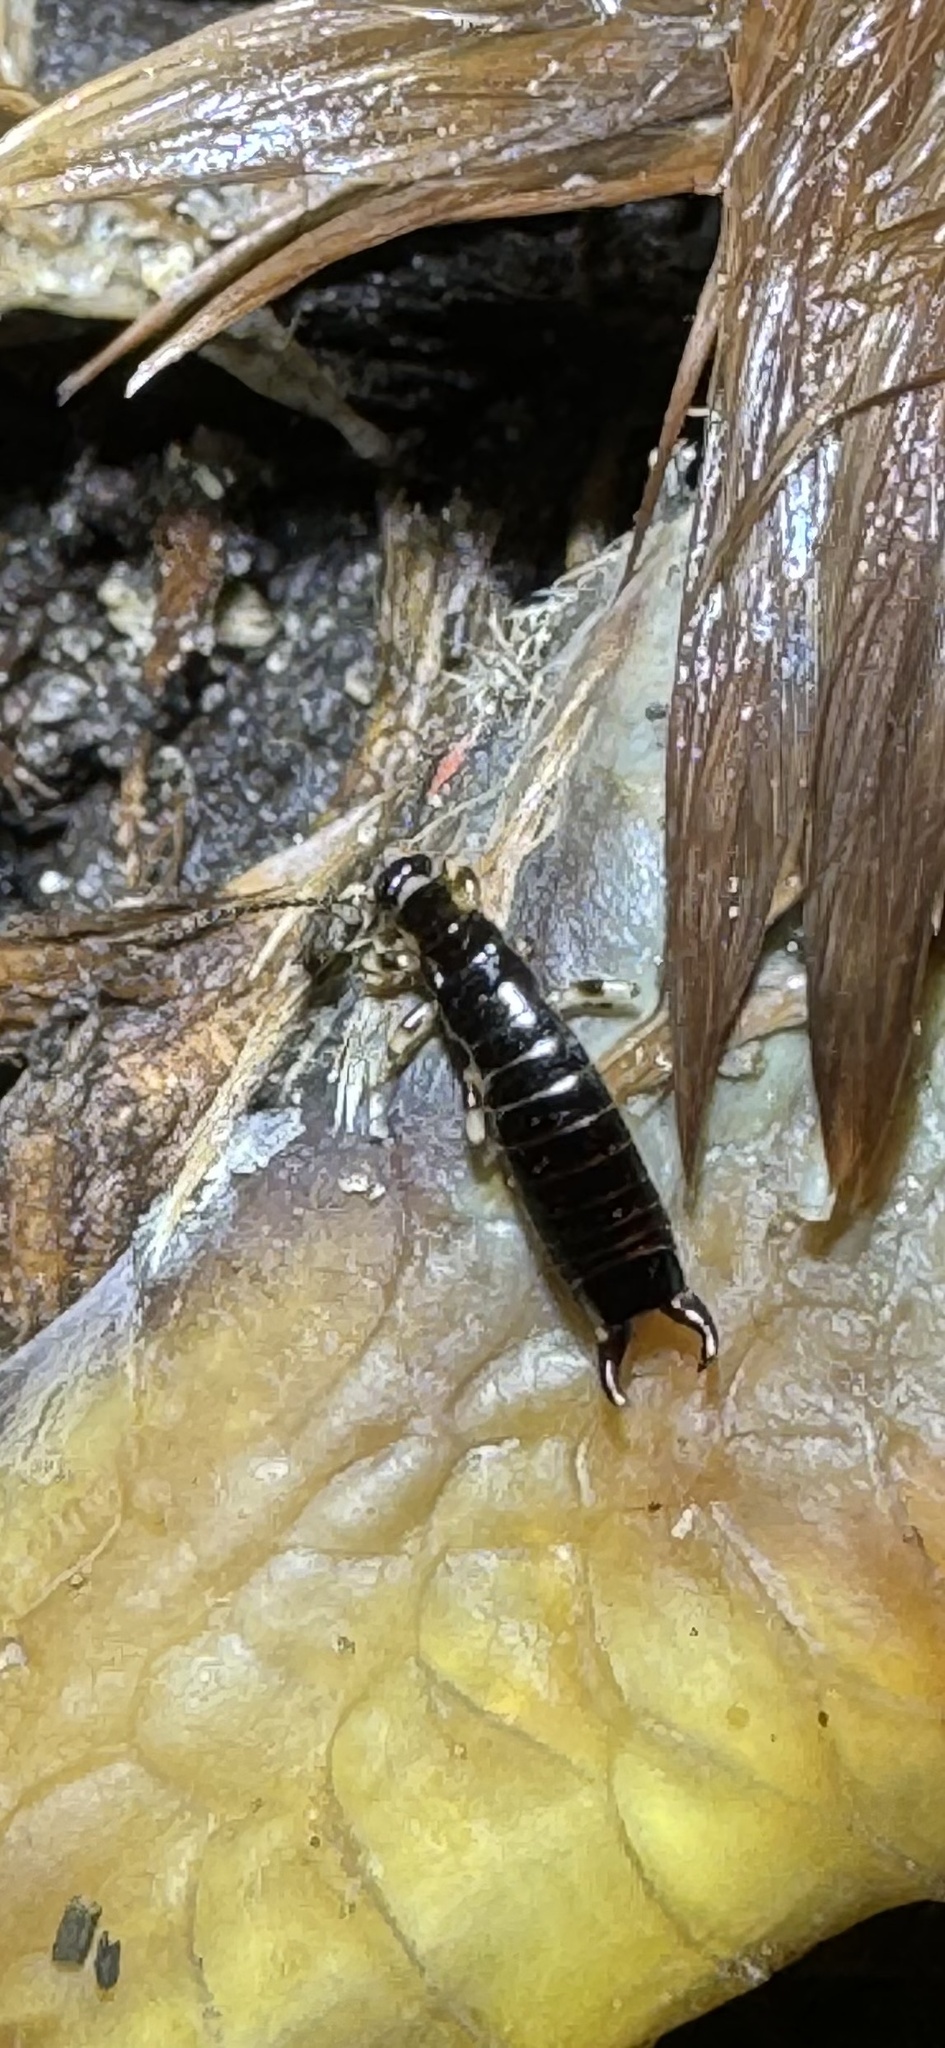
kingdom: Animalia
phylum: Arthropoda
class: Insecta
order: Dermaptera
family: Anisolabididae
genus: Euborellia
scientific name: Euborellia annulata
